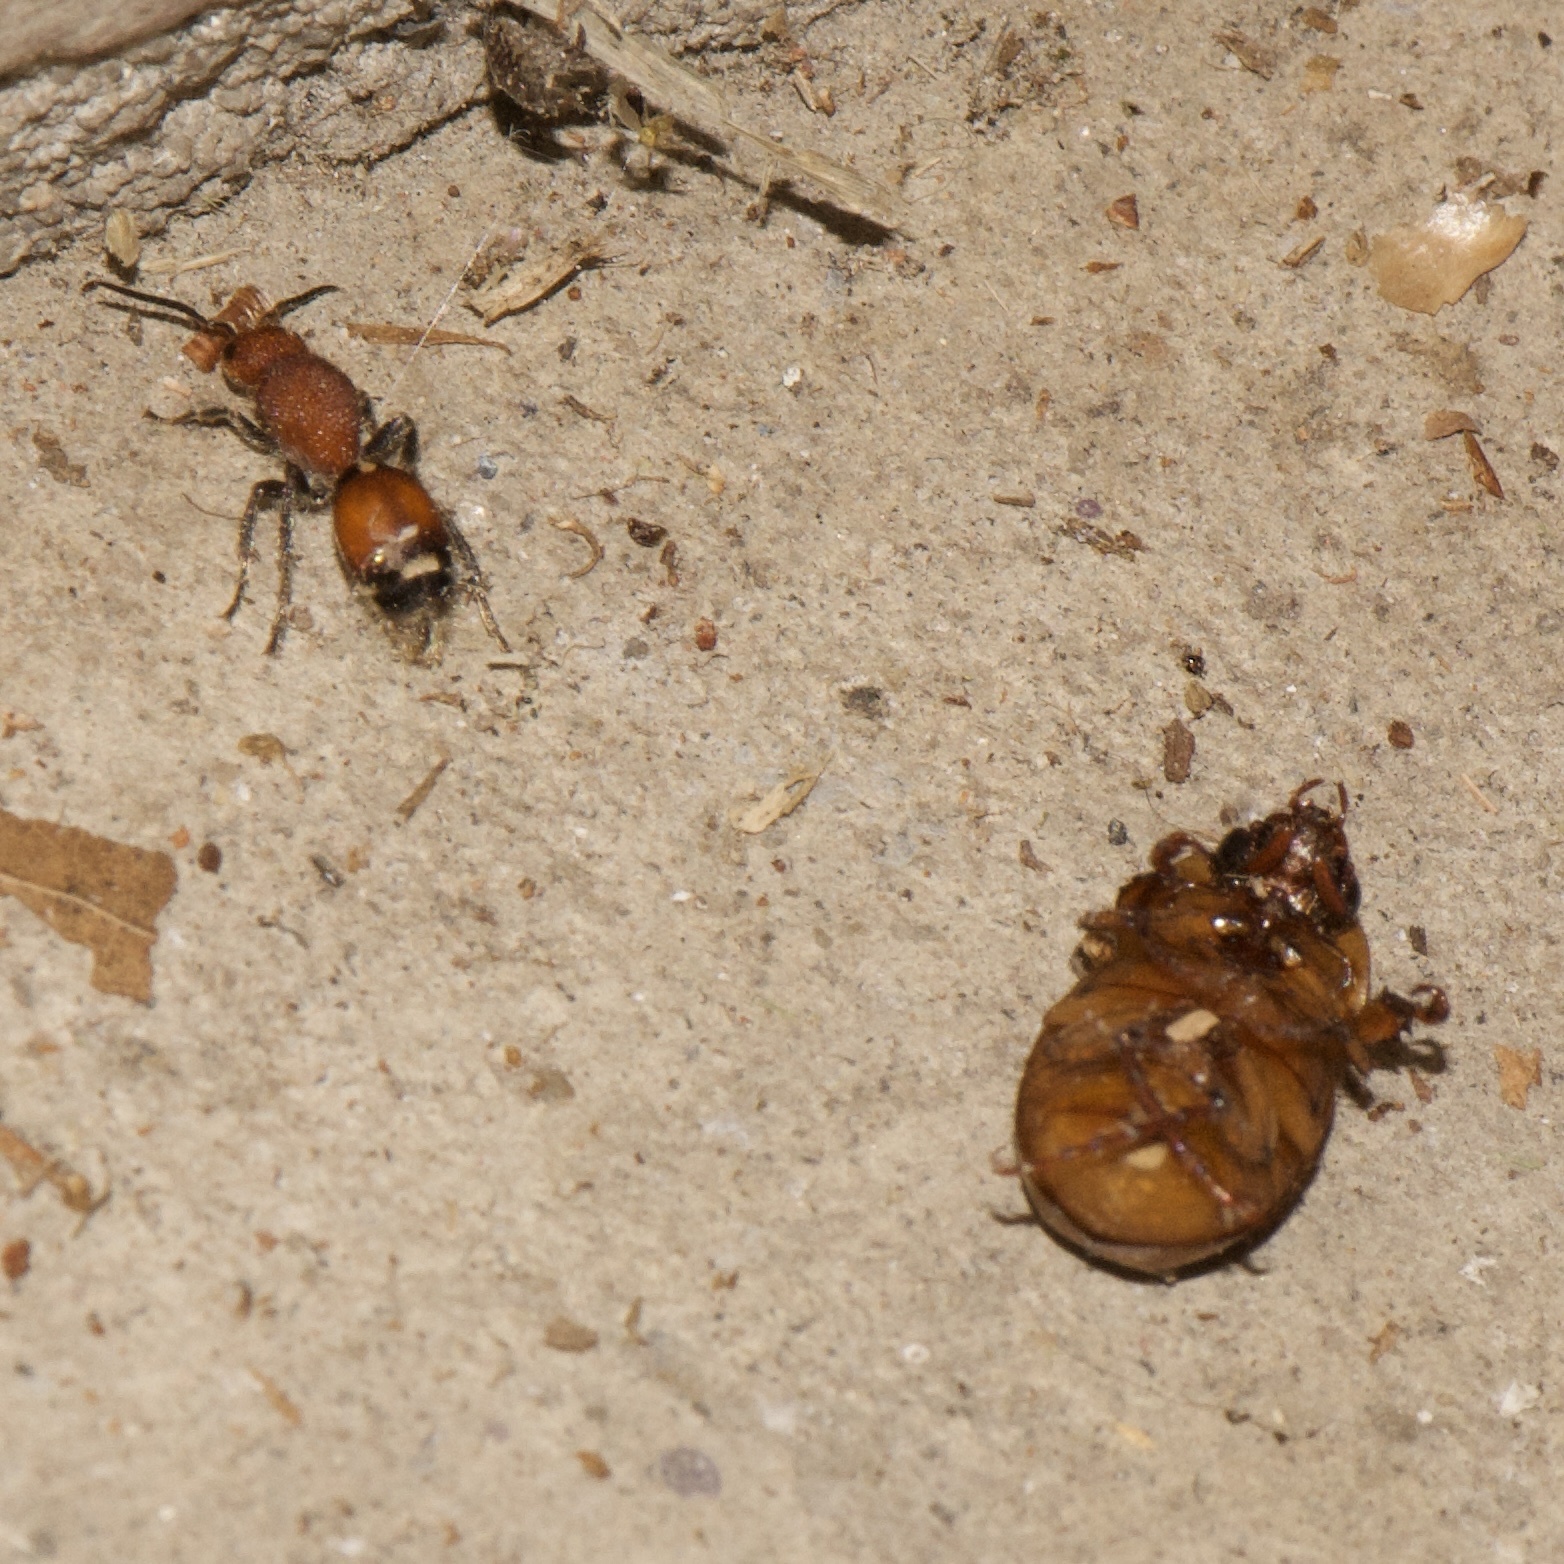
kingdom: Animalia
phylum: Arthropoda
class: Insecta
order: Hymenoptera
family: Mutillidae
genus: Sphaeropthalma
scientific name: Sphaeropthalma
